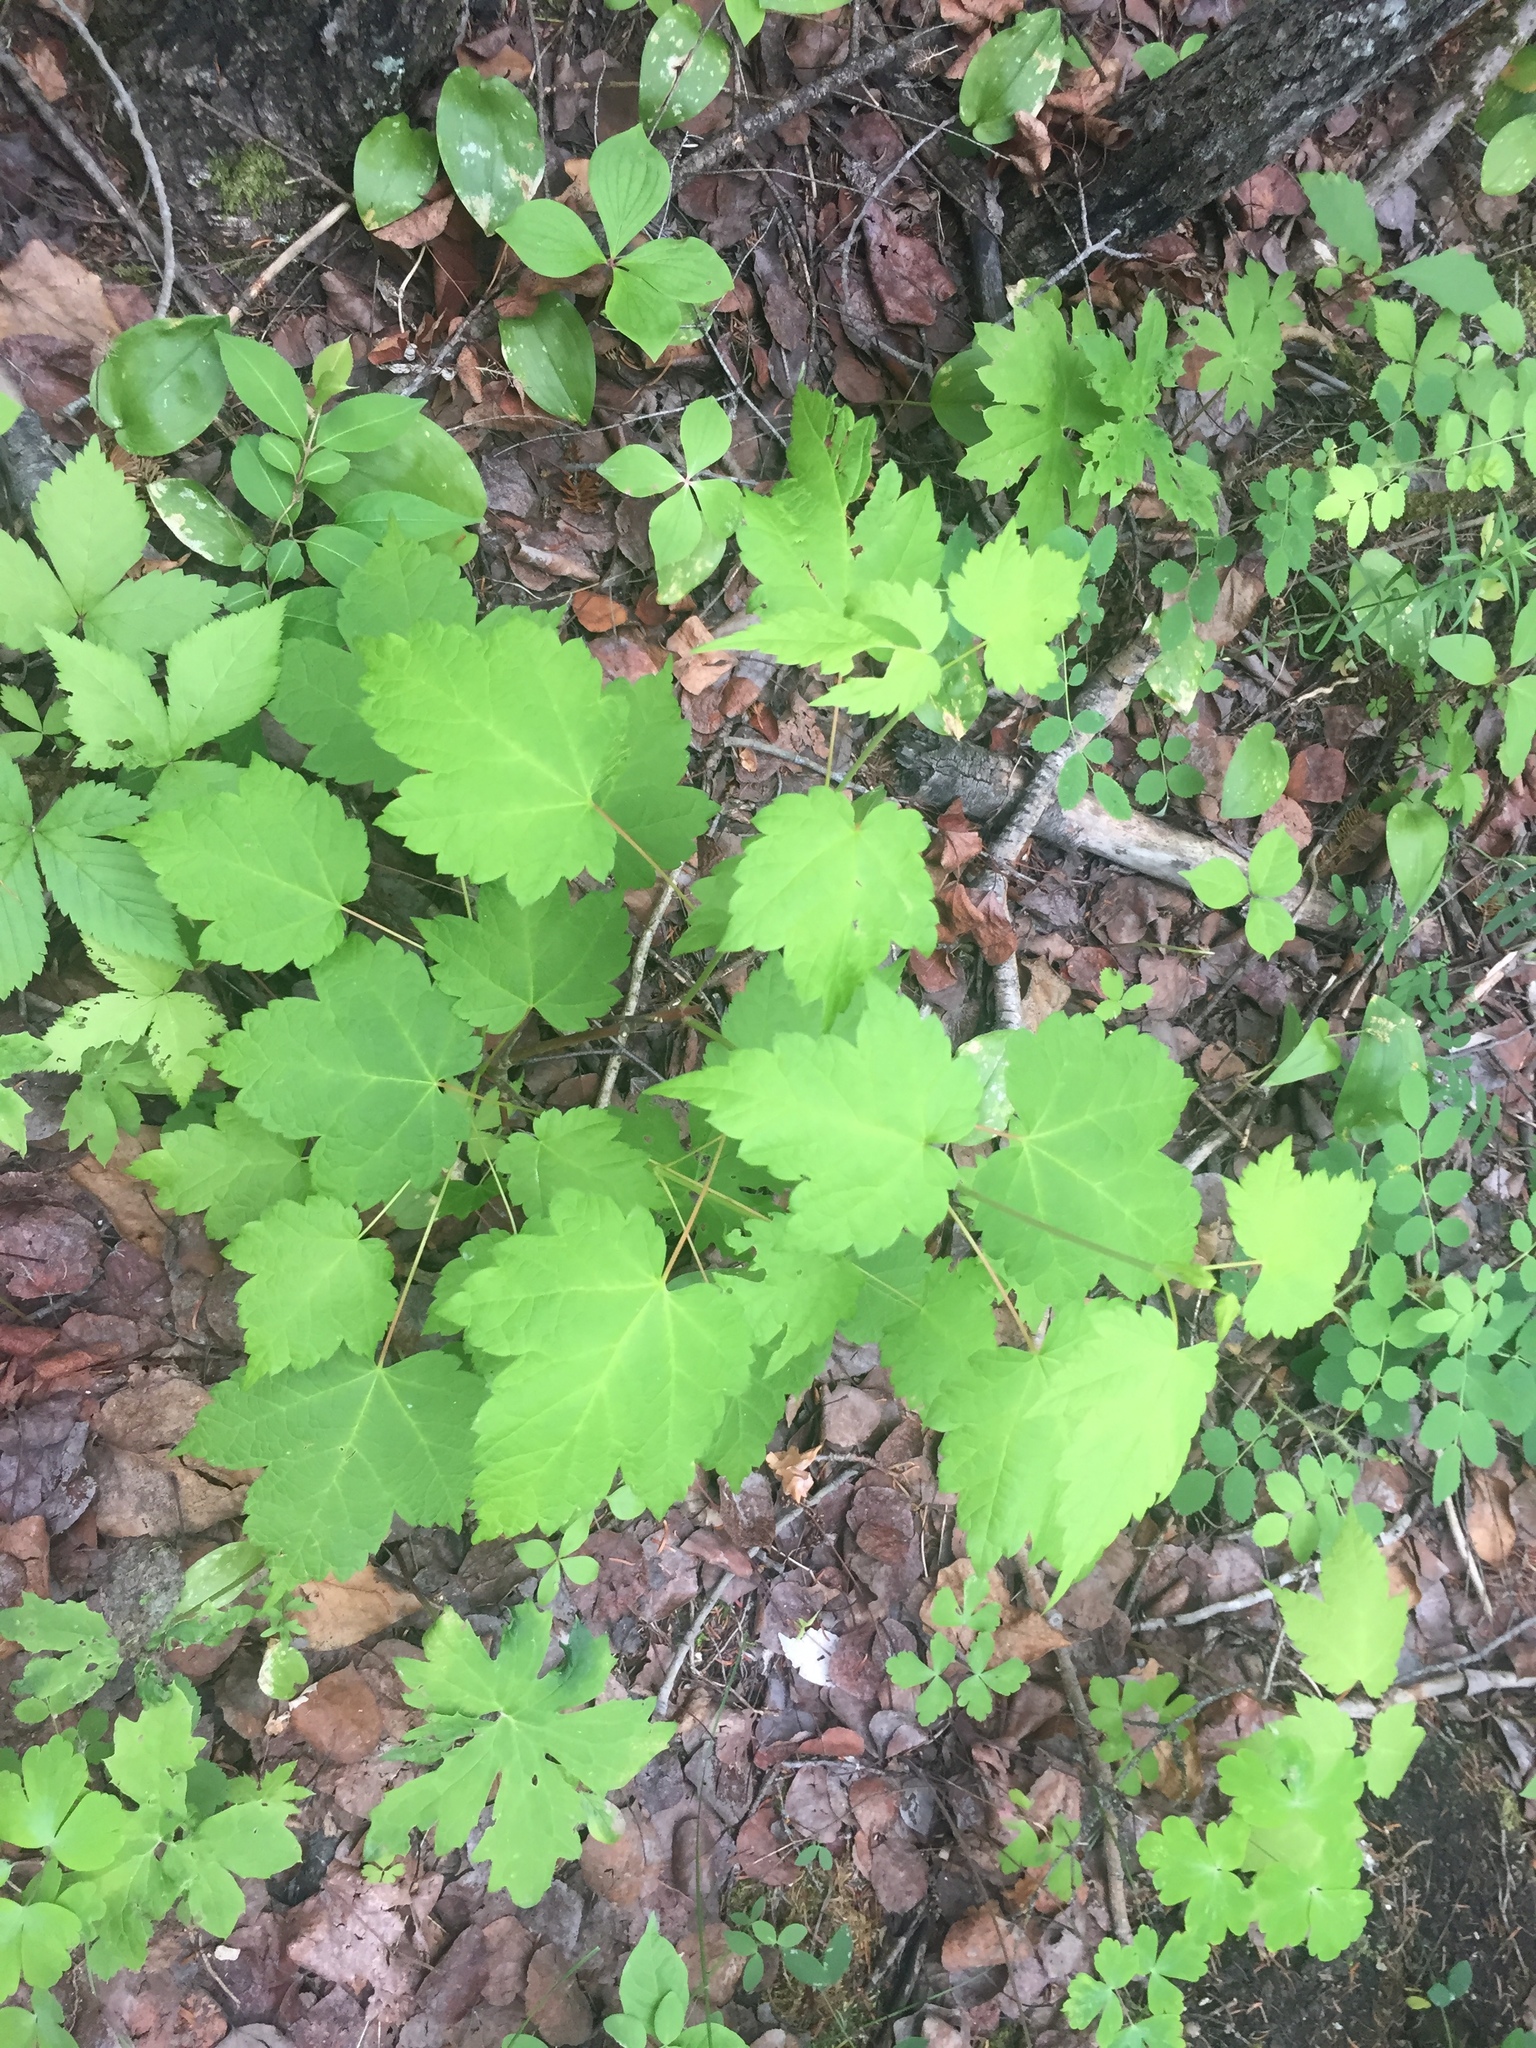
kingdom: Plantae
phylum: Tracheophyta
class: Magnoliopsida
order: Sapindales
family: Sapindaceae
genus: Acer
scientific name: Acer spicatum
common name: Mountain maple
